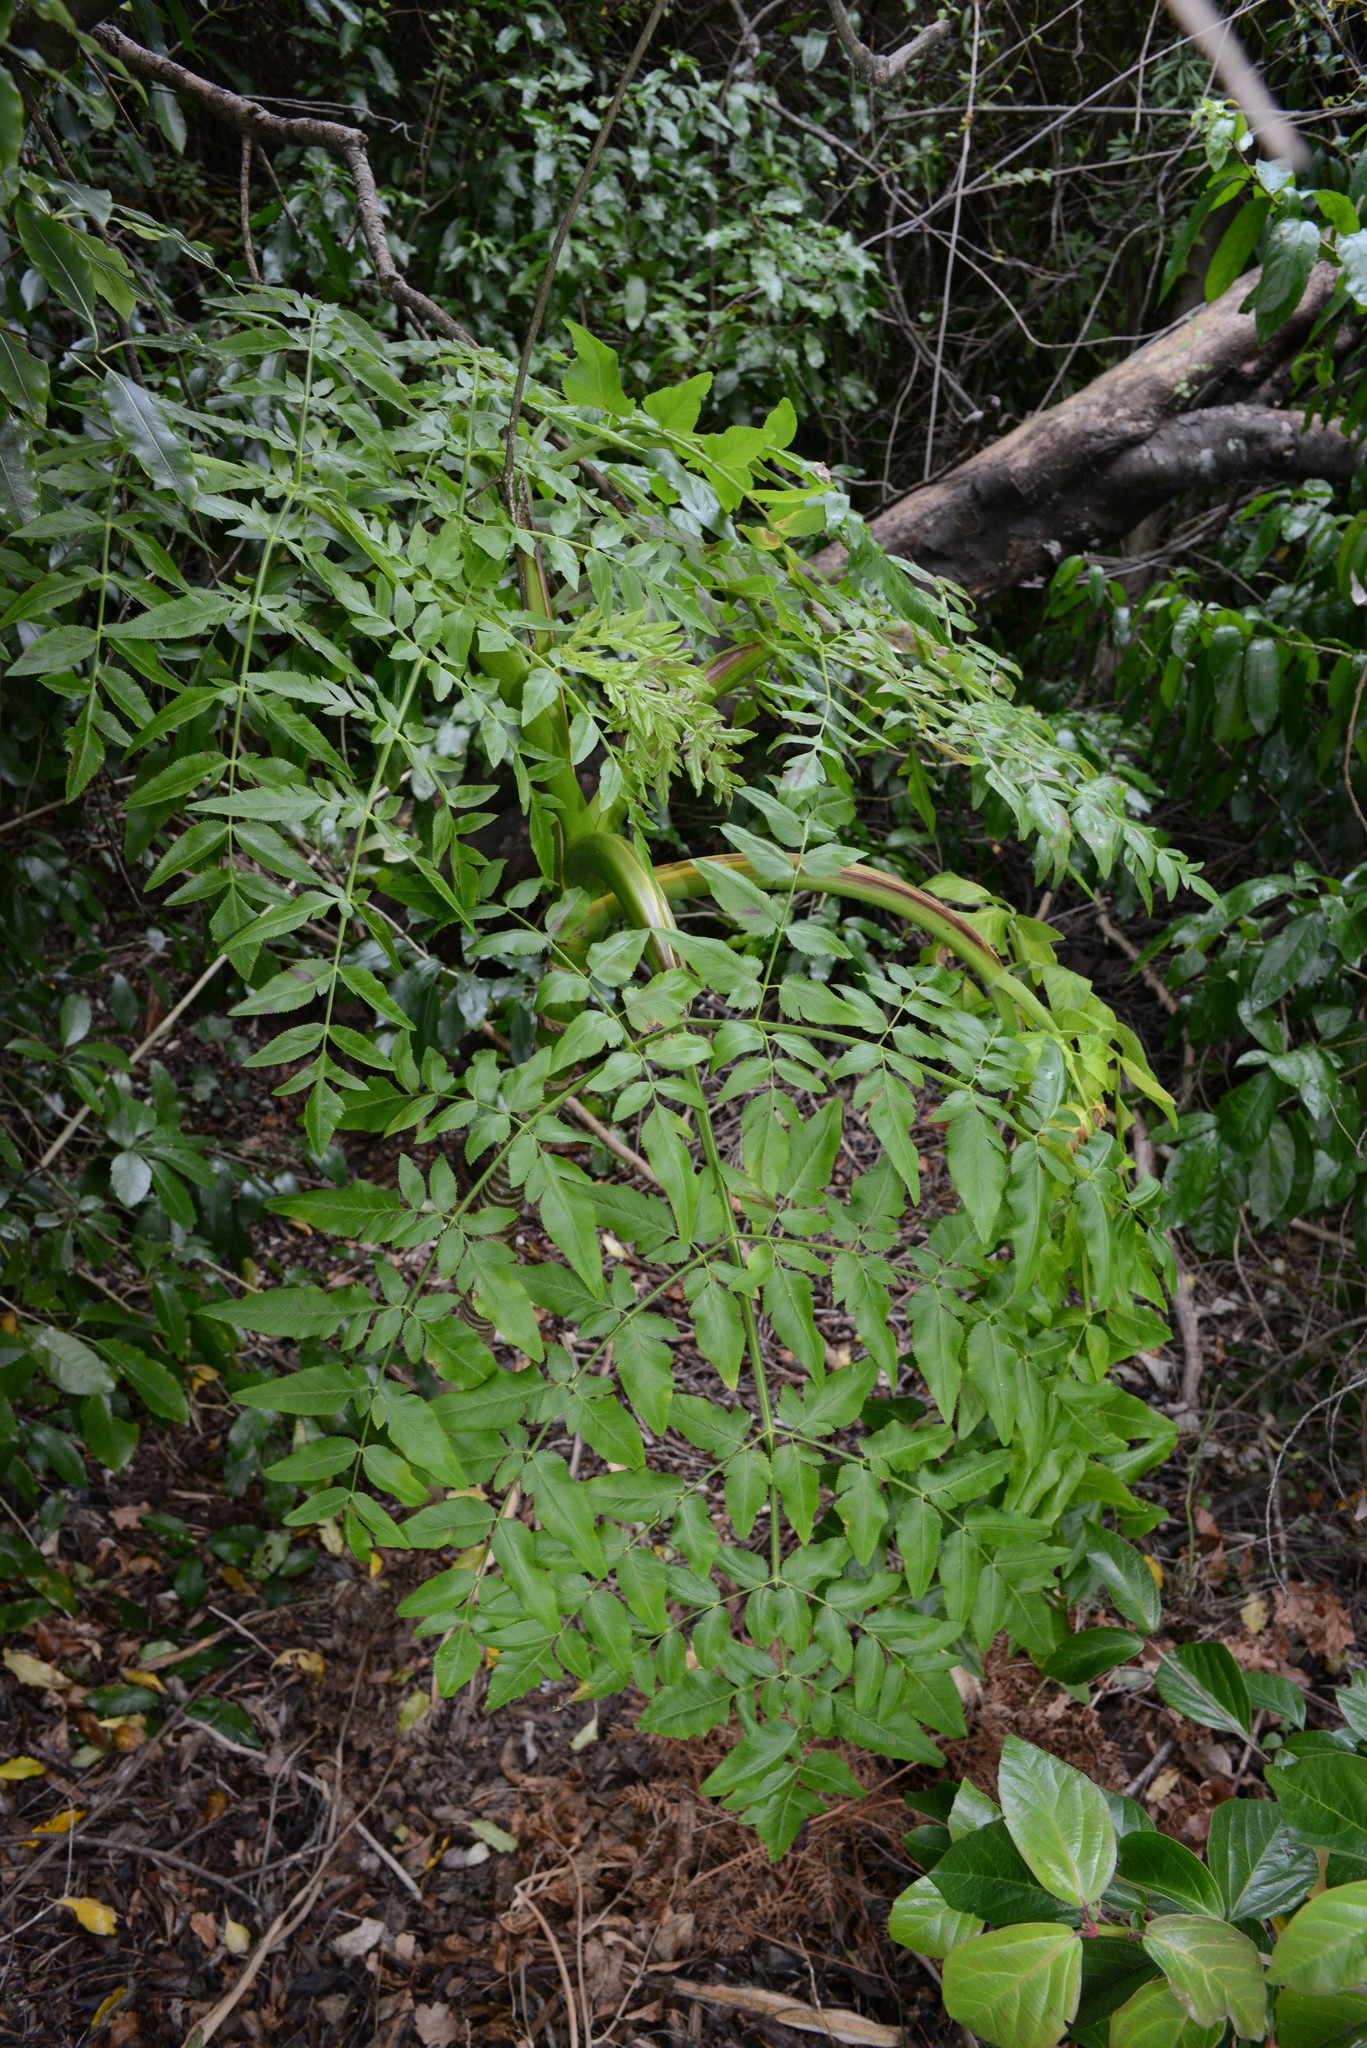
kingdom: Plantae
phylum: Tracheophyta
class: Magnoliopsida
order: Apiales
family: Apiaceae
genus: Daucus
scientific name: Daucus decipiens
